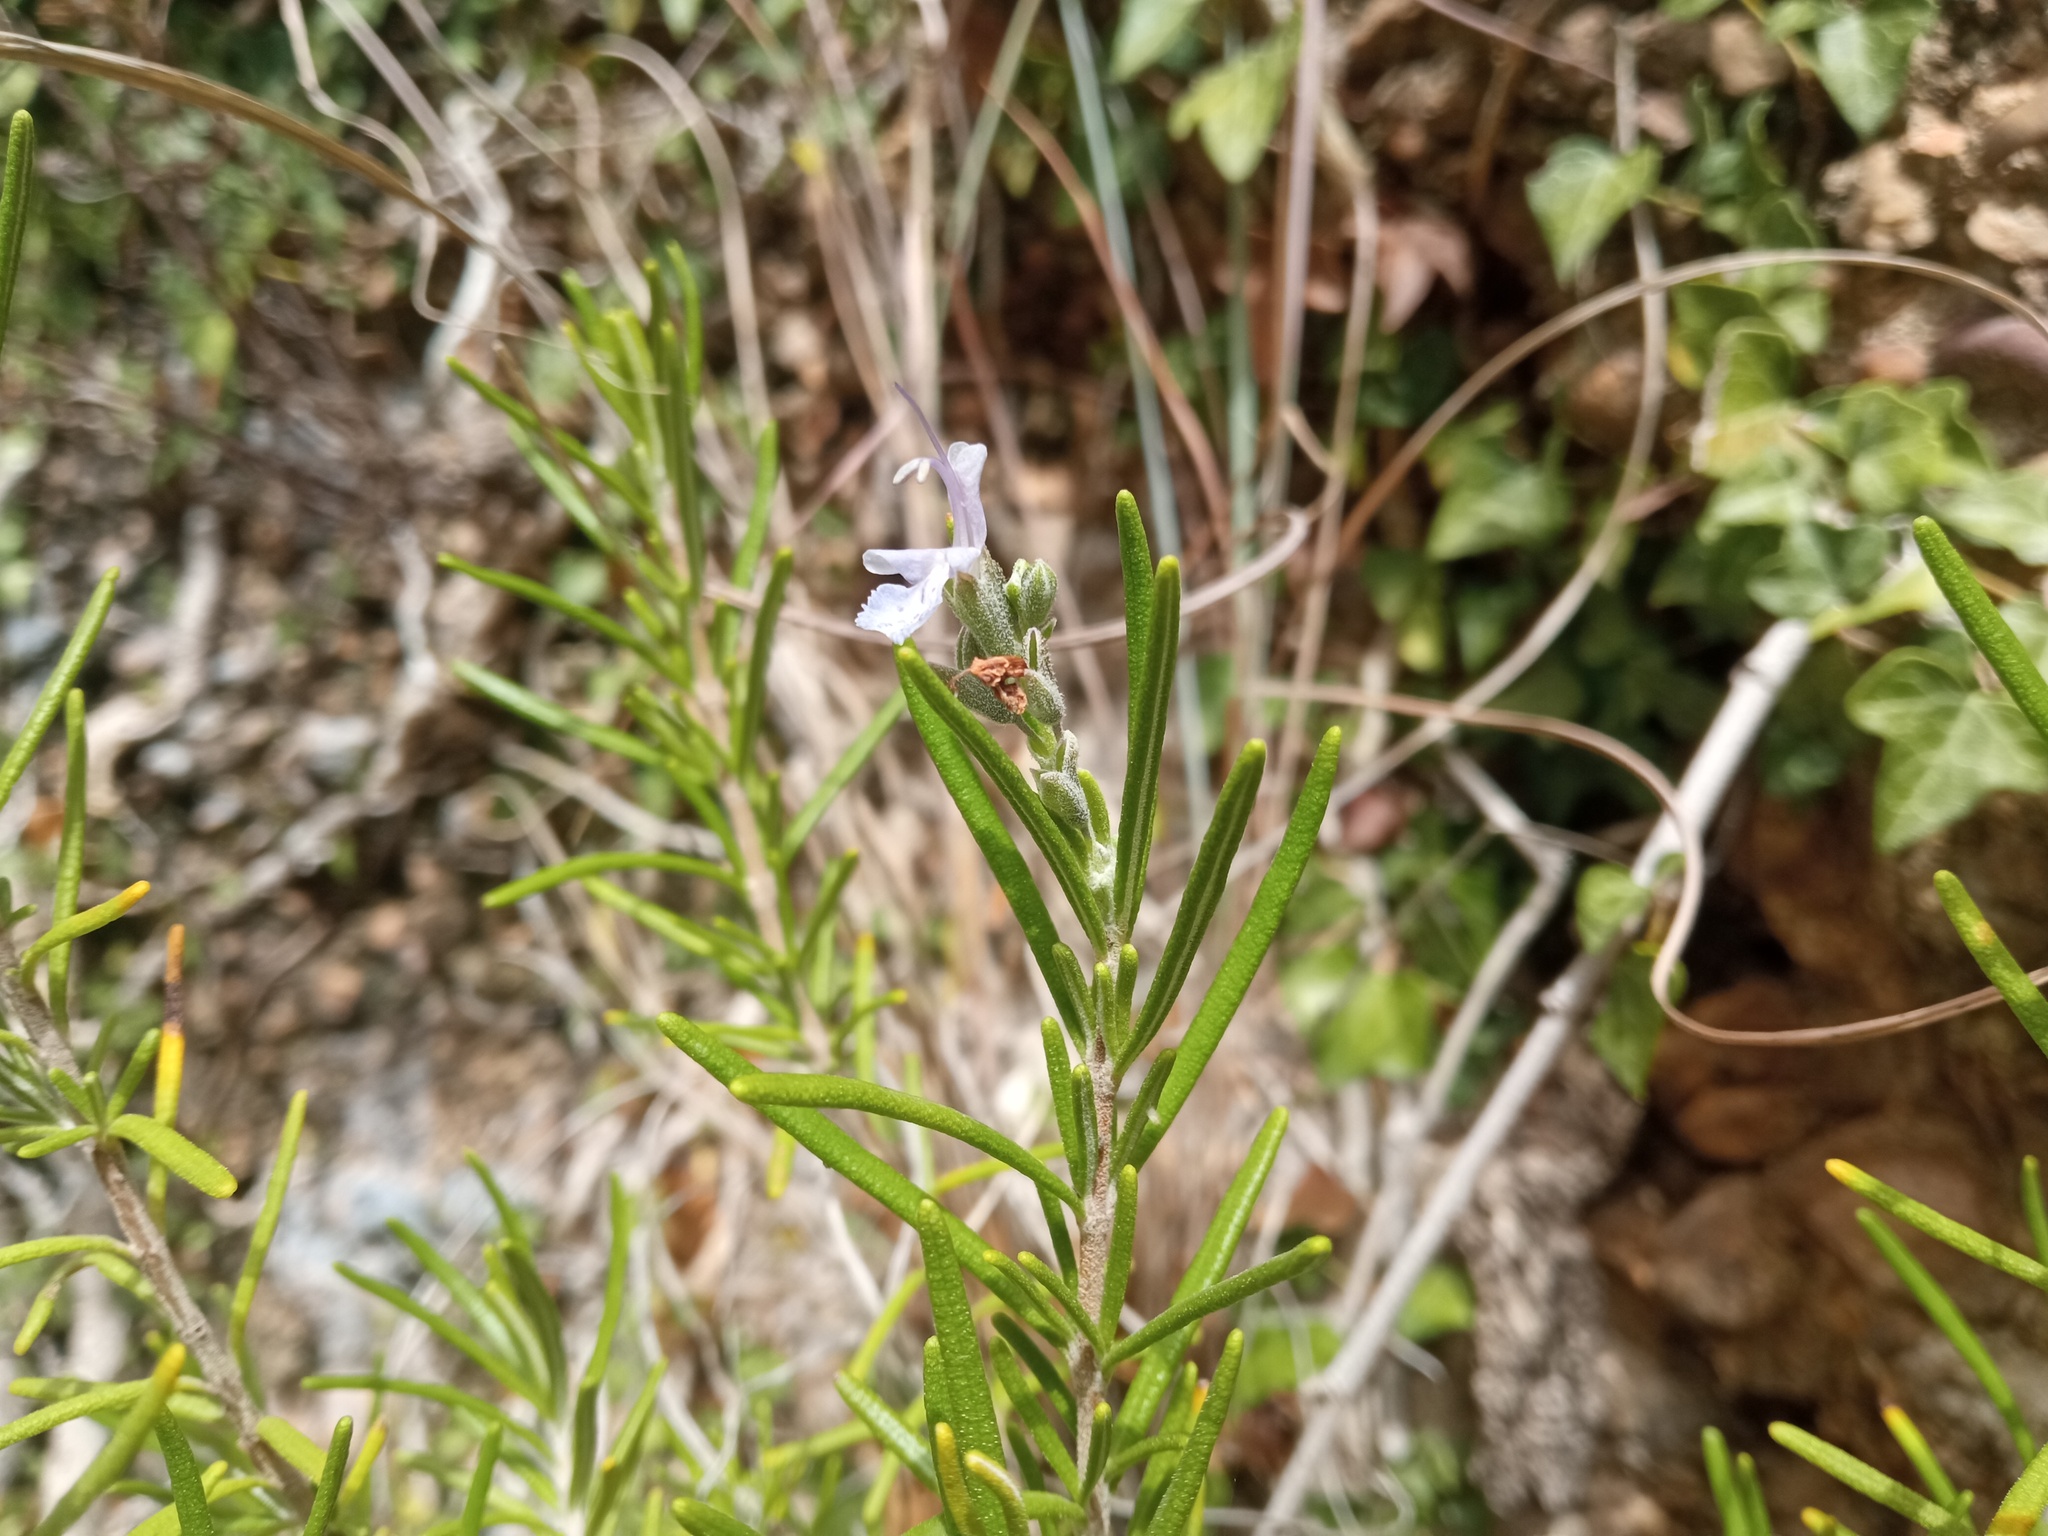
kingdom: Plantae
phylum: Tracheophyta
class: Magnoliopsida
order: Lamiales
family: Lamiaceae
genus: Salvia
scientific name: Salvia rosmarinus
